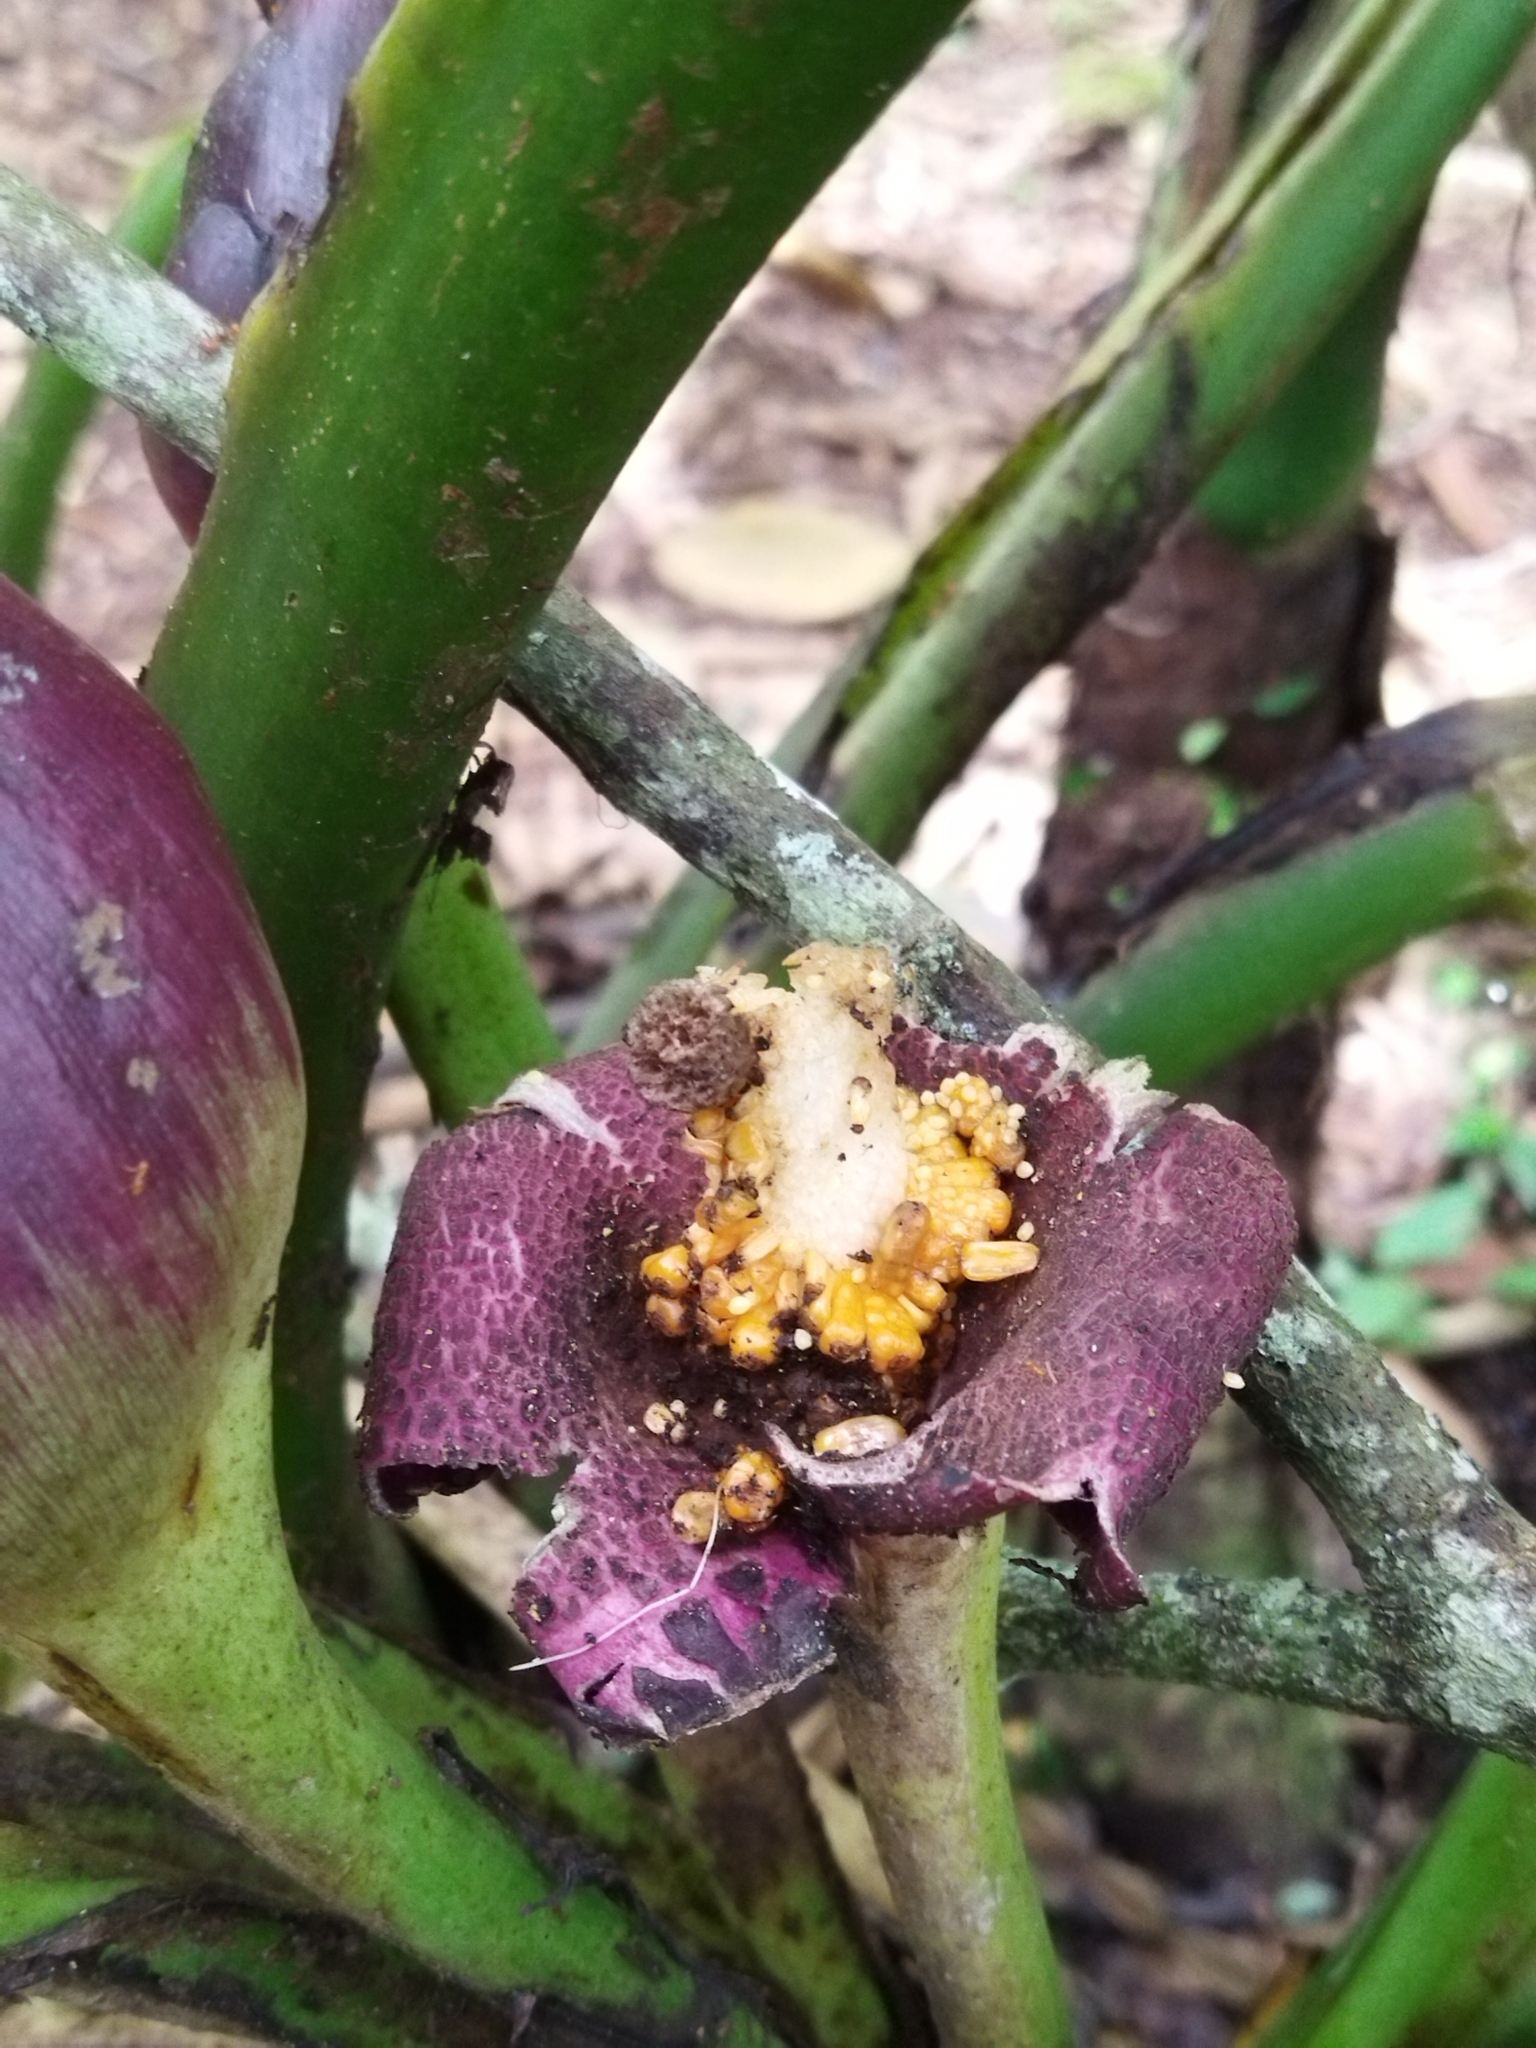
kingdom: Plantae
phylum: Tracheophyta
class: Liliopsida
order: Alismatales
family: Araceae
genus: Xanthosoma
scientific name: Xanthosoma sagittifolium
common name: Arrowleaf elephant's ear
